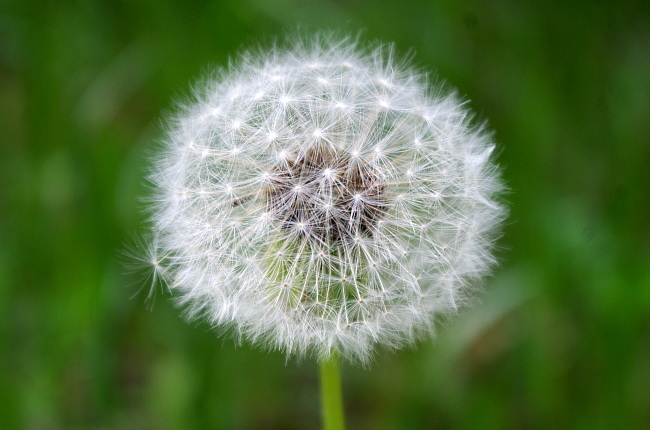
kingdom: Plantae
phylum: Tracheophyta
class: Magnoliopsida
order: Asterales
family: Asteraceae
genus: Taraxacum
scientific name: Taraxacum officinale
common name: Common dandelion
